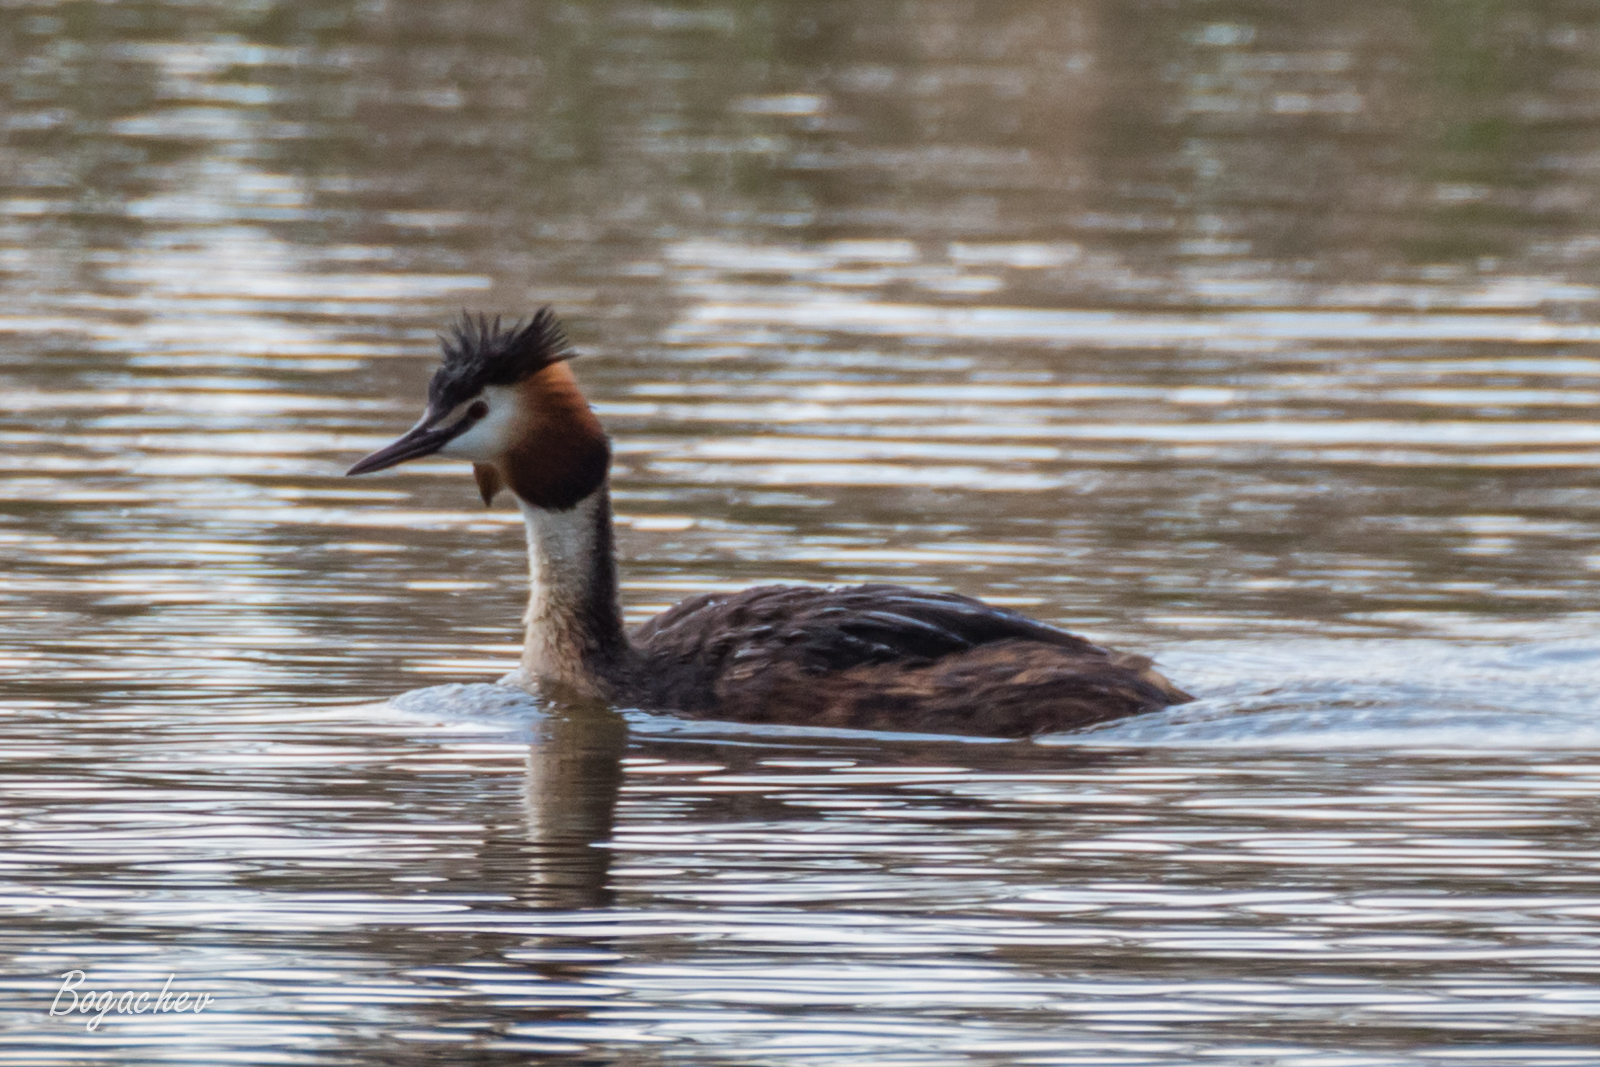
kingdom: Animalia
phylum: Chordata
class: Aves
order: Podicipediformes
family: Podicipedidae
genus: Podiceps
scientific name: Podiceps cristatus
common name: Great crested grebe
